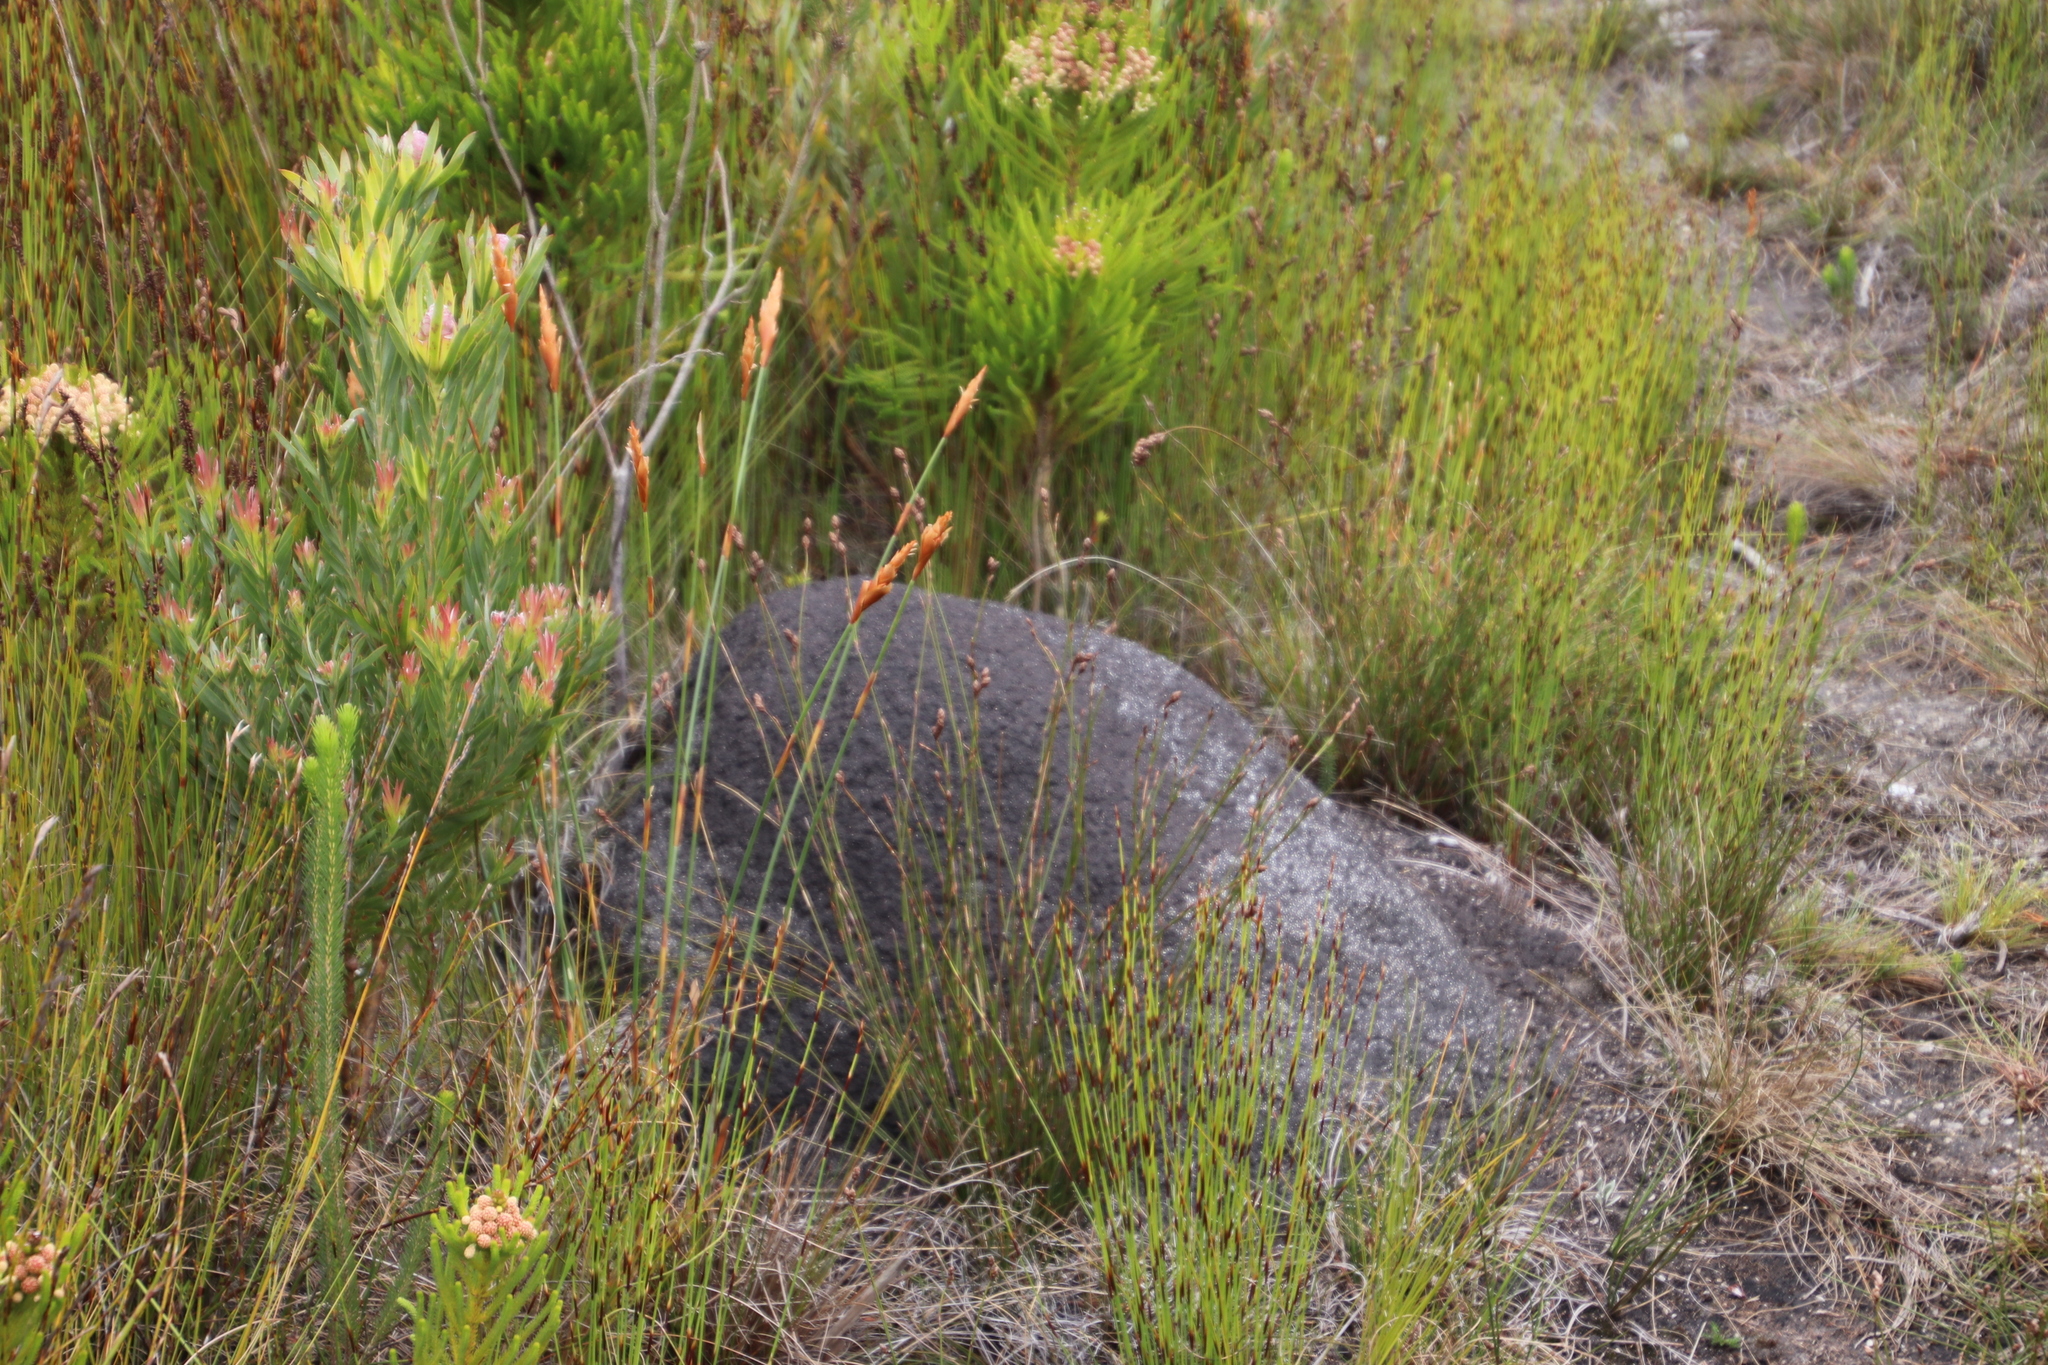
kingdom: Animalia
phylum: Arthropoda
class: Insecta
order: Blattodea
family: Termitidae
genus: Amitermes
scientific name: Amitermes hastatus
